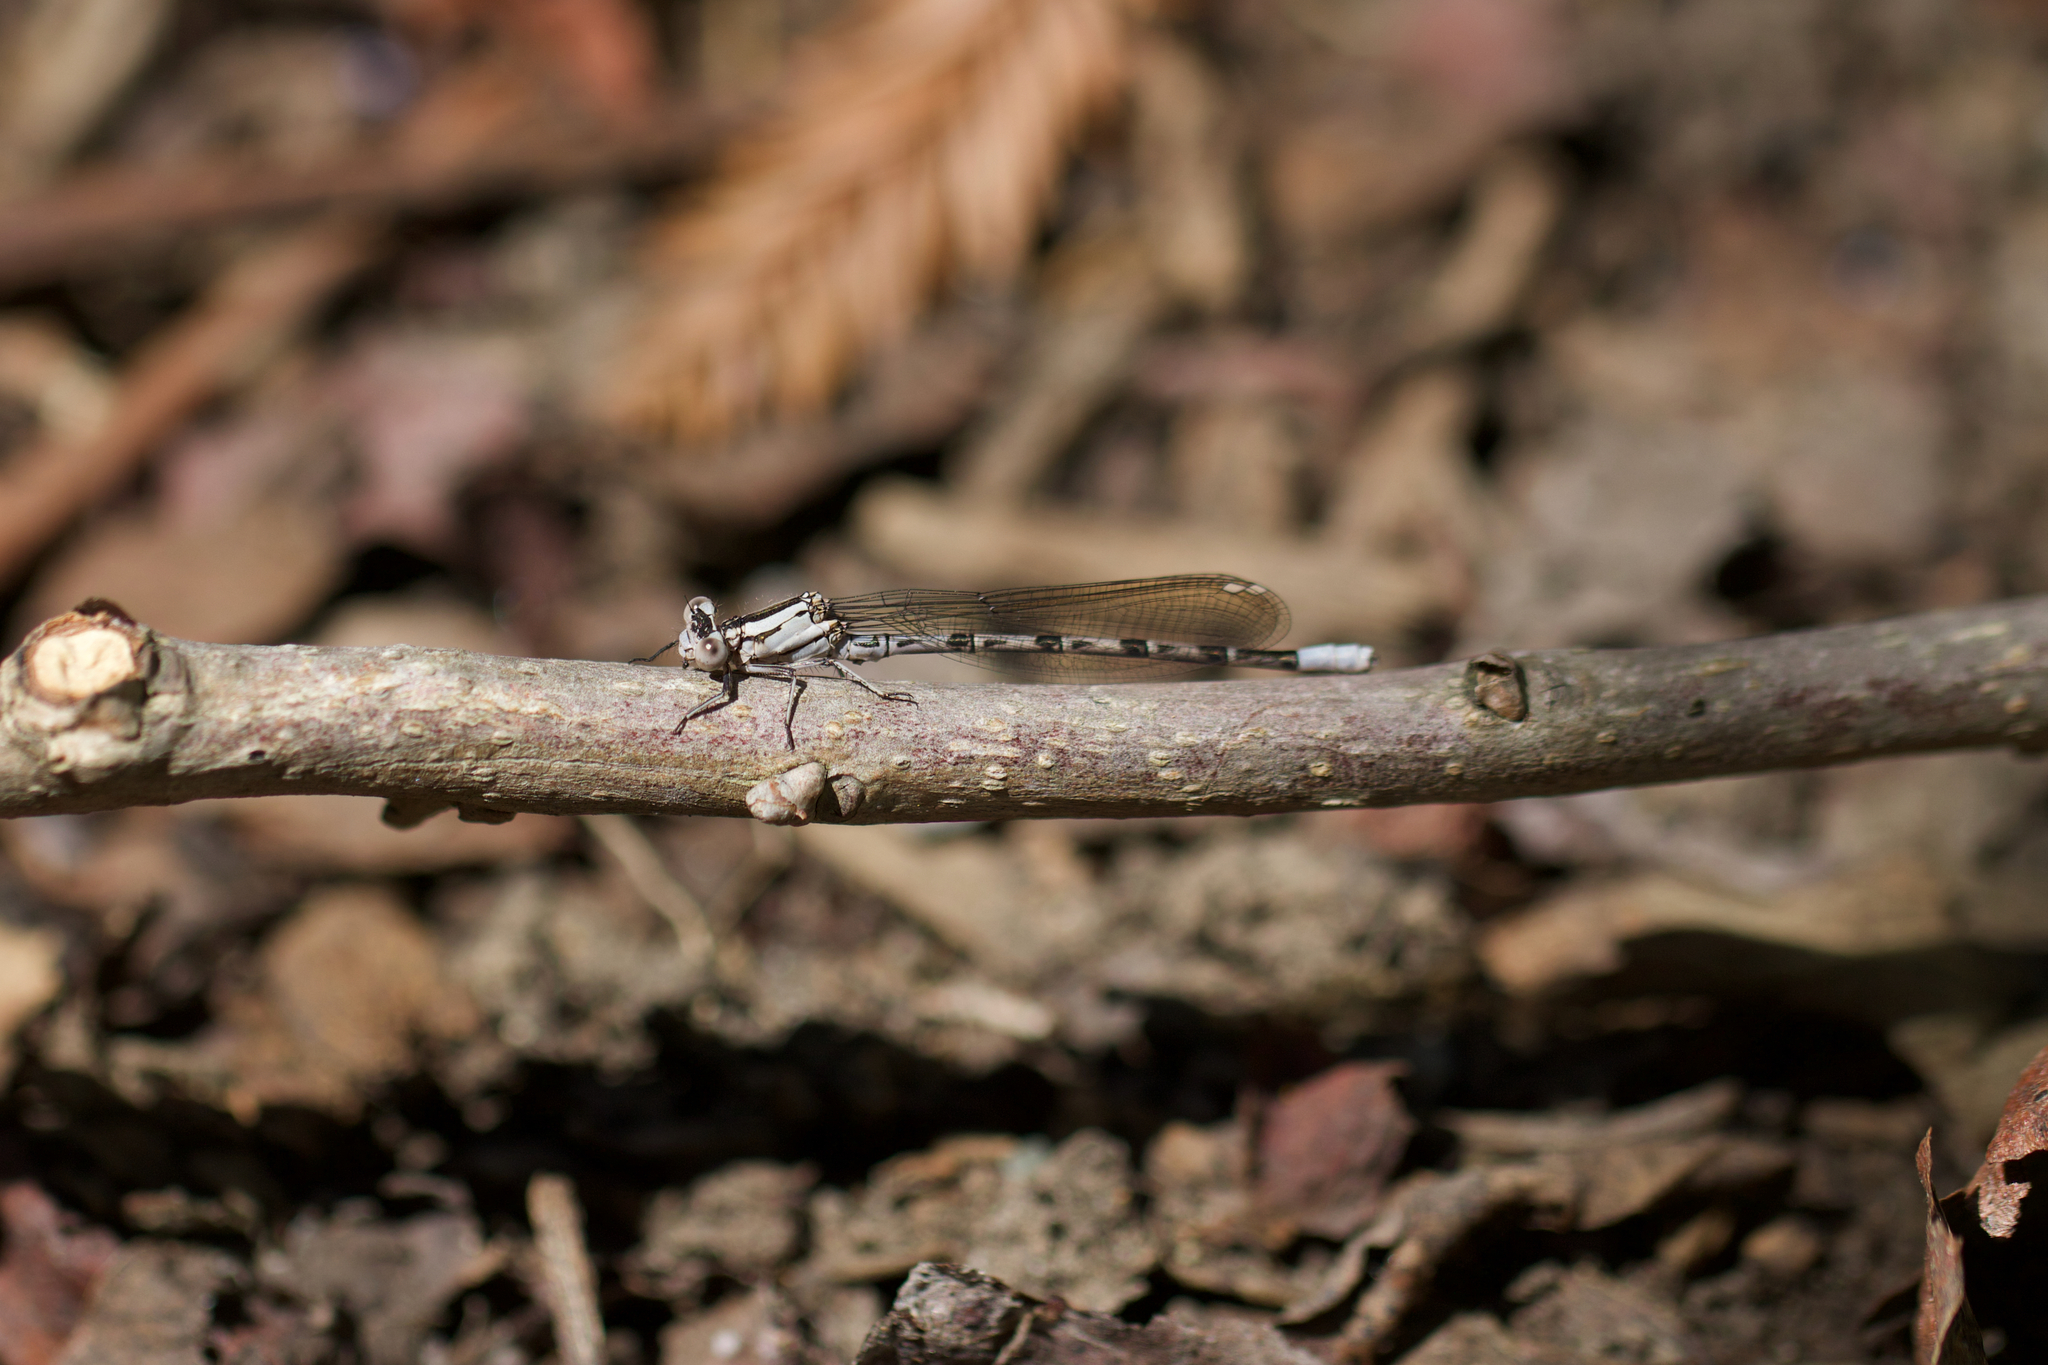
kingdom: Animalia
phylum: Arthropoda
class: Insecta
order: Odonata
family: Coenagrionidae
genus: Argia
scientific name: Argia vivida
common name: Vivid dancer
